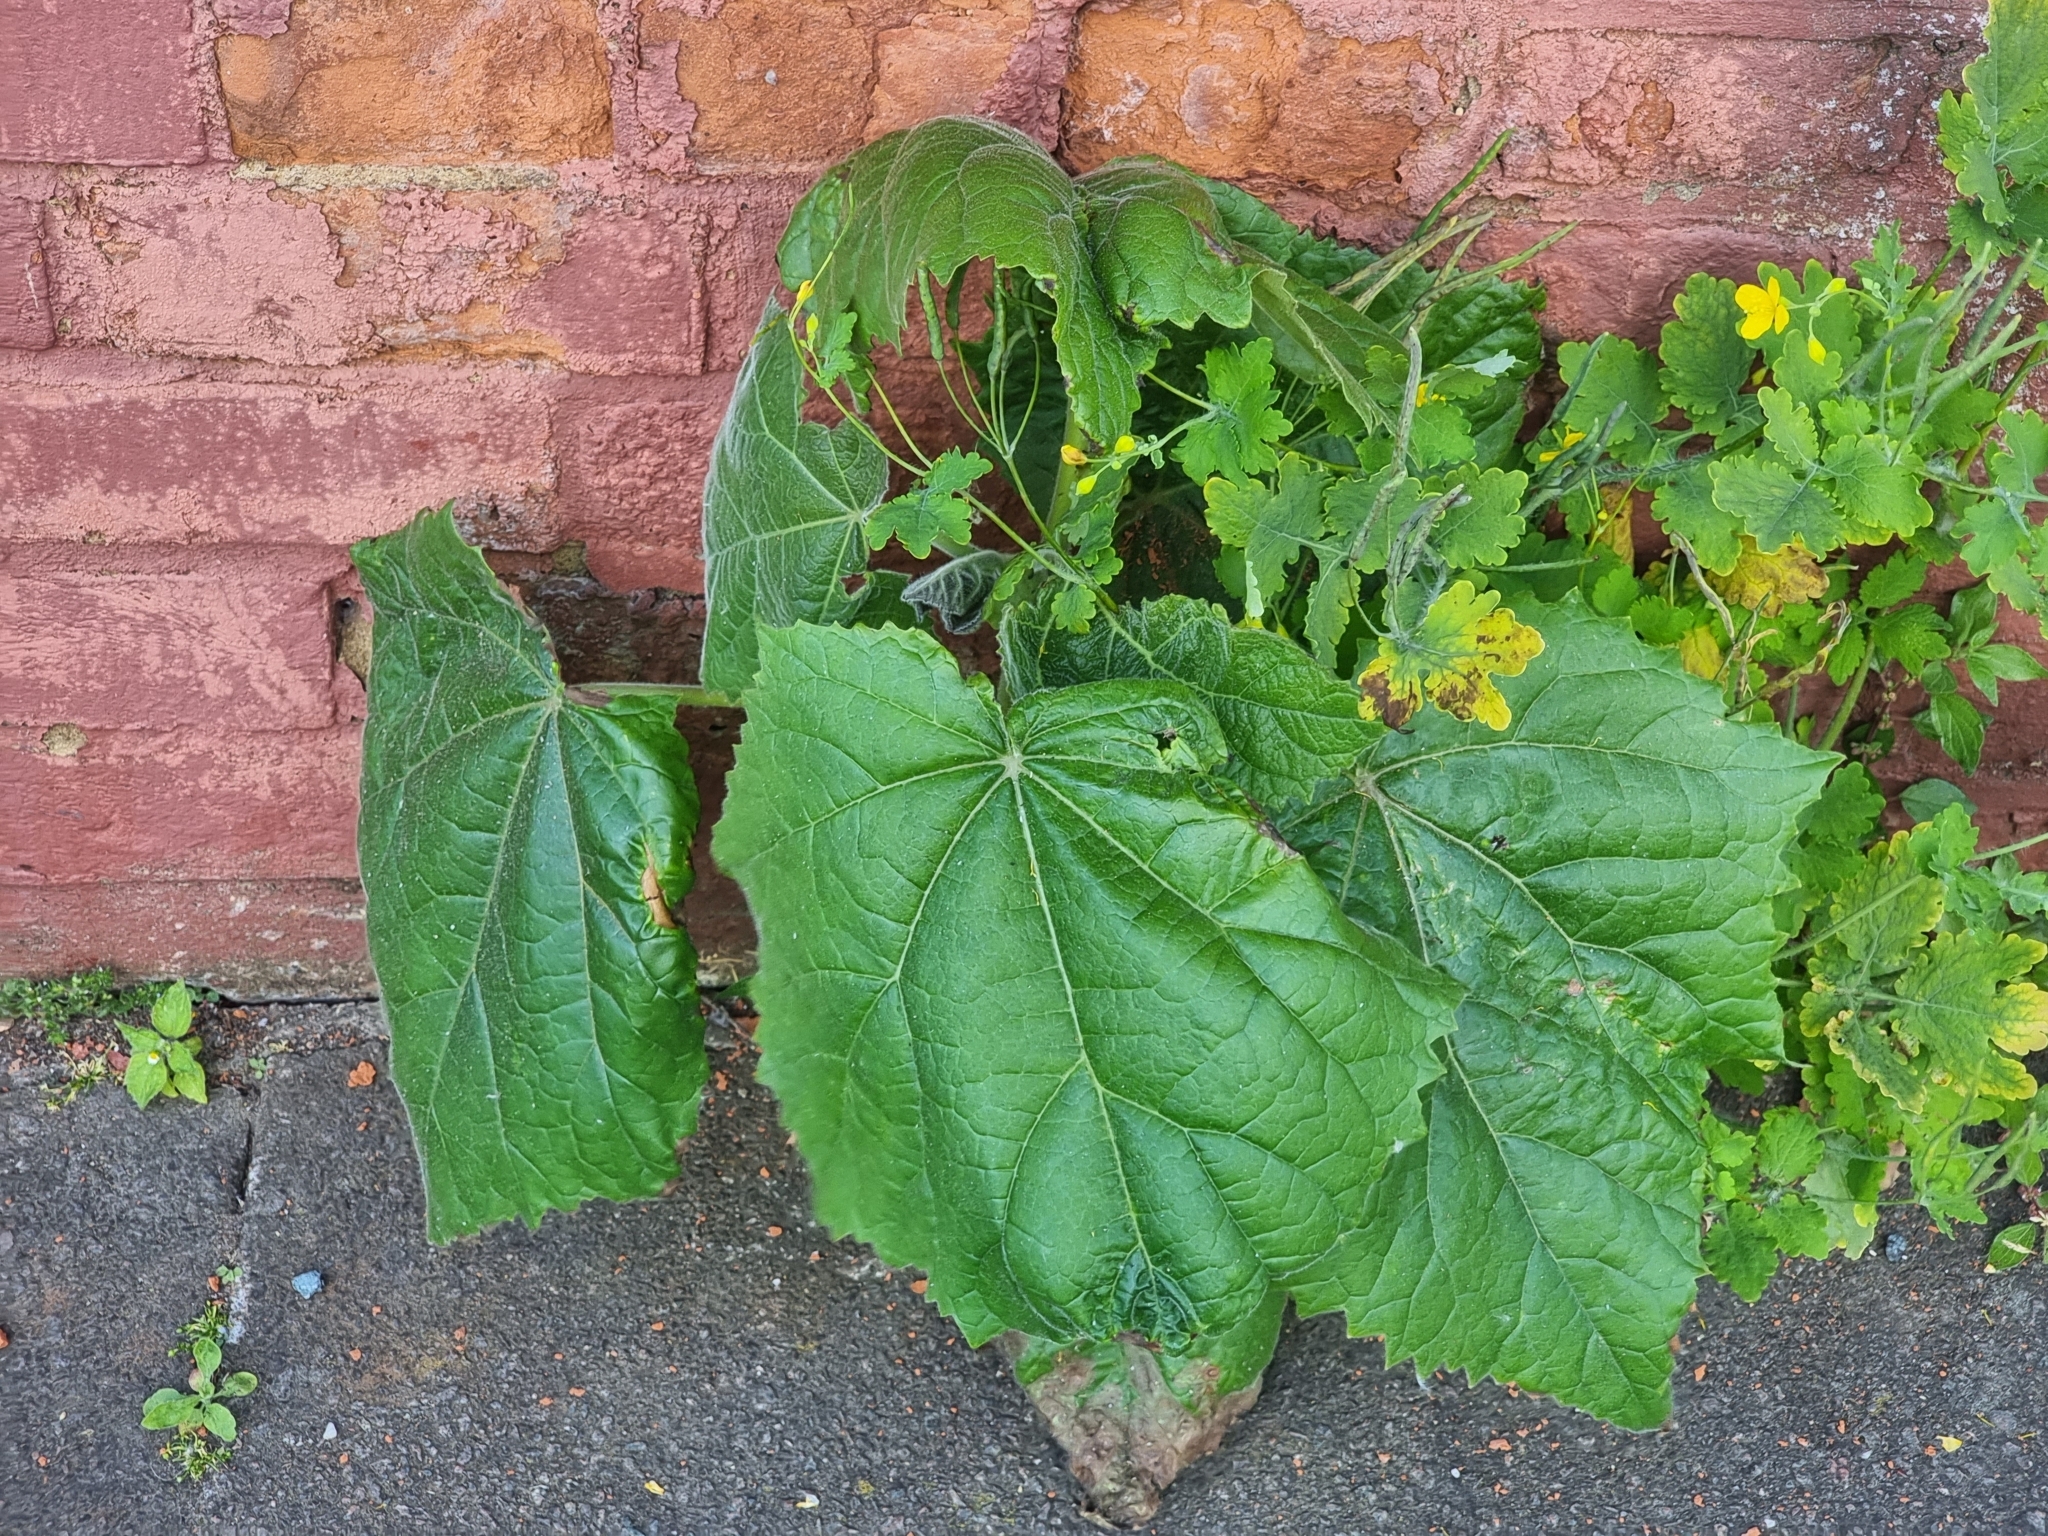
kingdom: Plantae
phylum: Tracheophyta
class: Magnoliopsida
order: Lamiales
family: Paulowniaceae
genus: Paulownia
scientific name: Paulownia tomentosa
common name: Foxglove-tree
